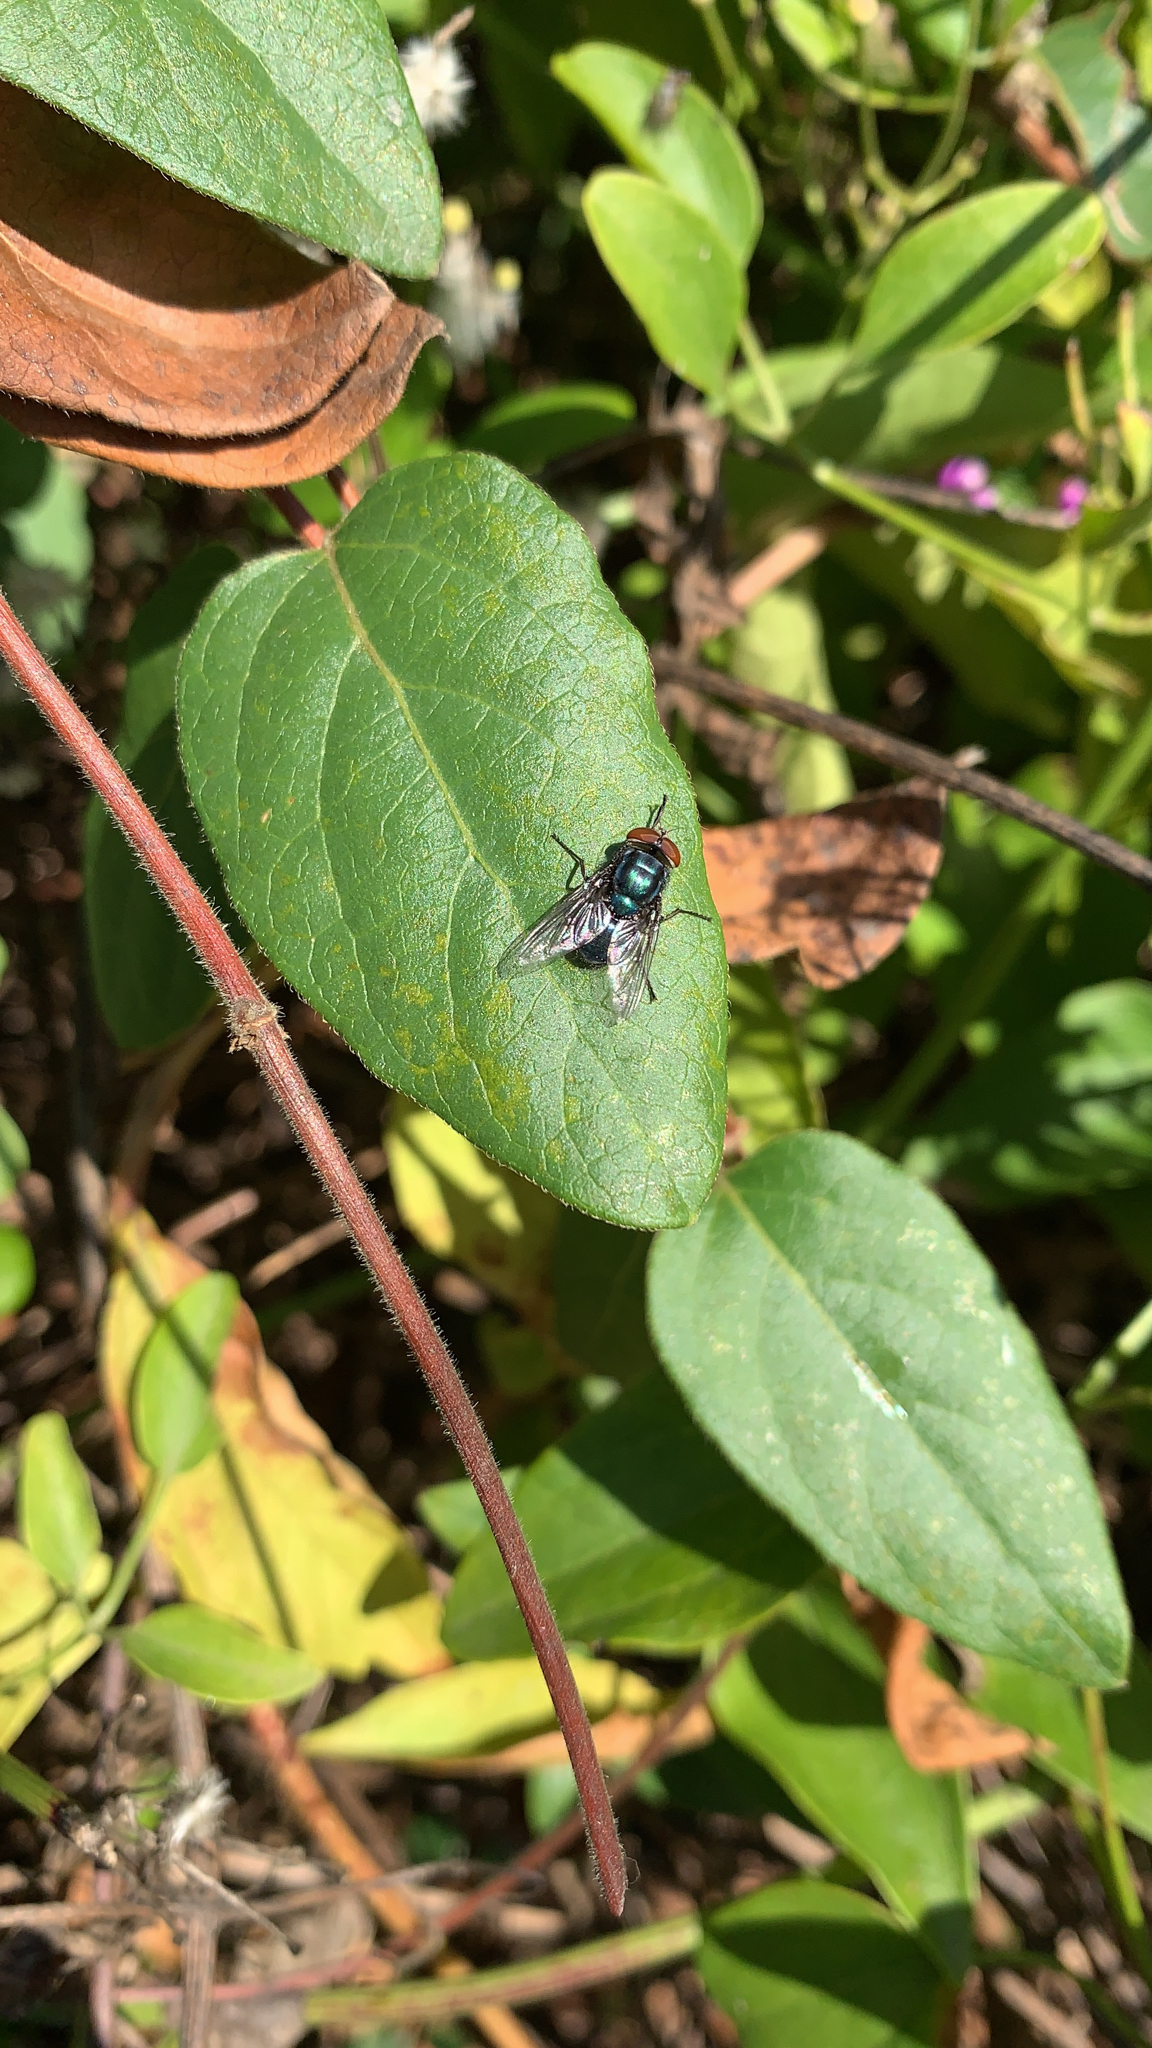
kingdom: Animalia
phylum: Arthropoda
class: Insecta
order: Diptera
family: Calliphoridae
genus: Cochliomyia
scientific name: Cochliomyia macellaria
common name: Secondary screwworm
